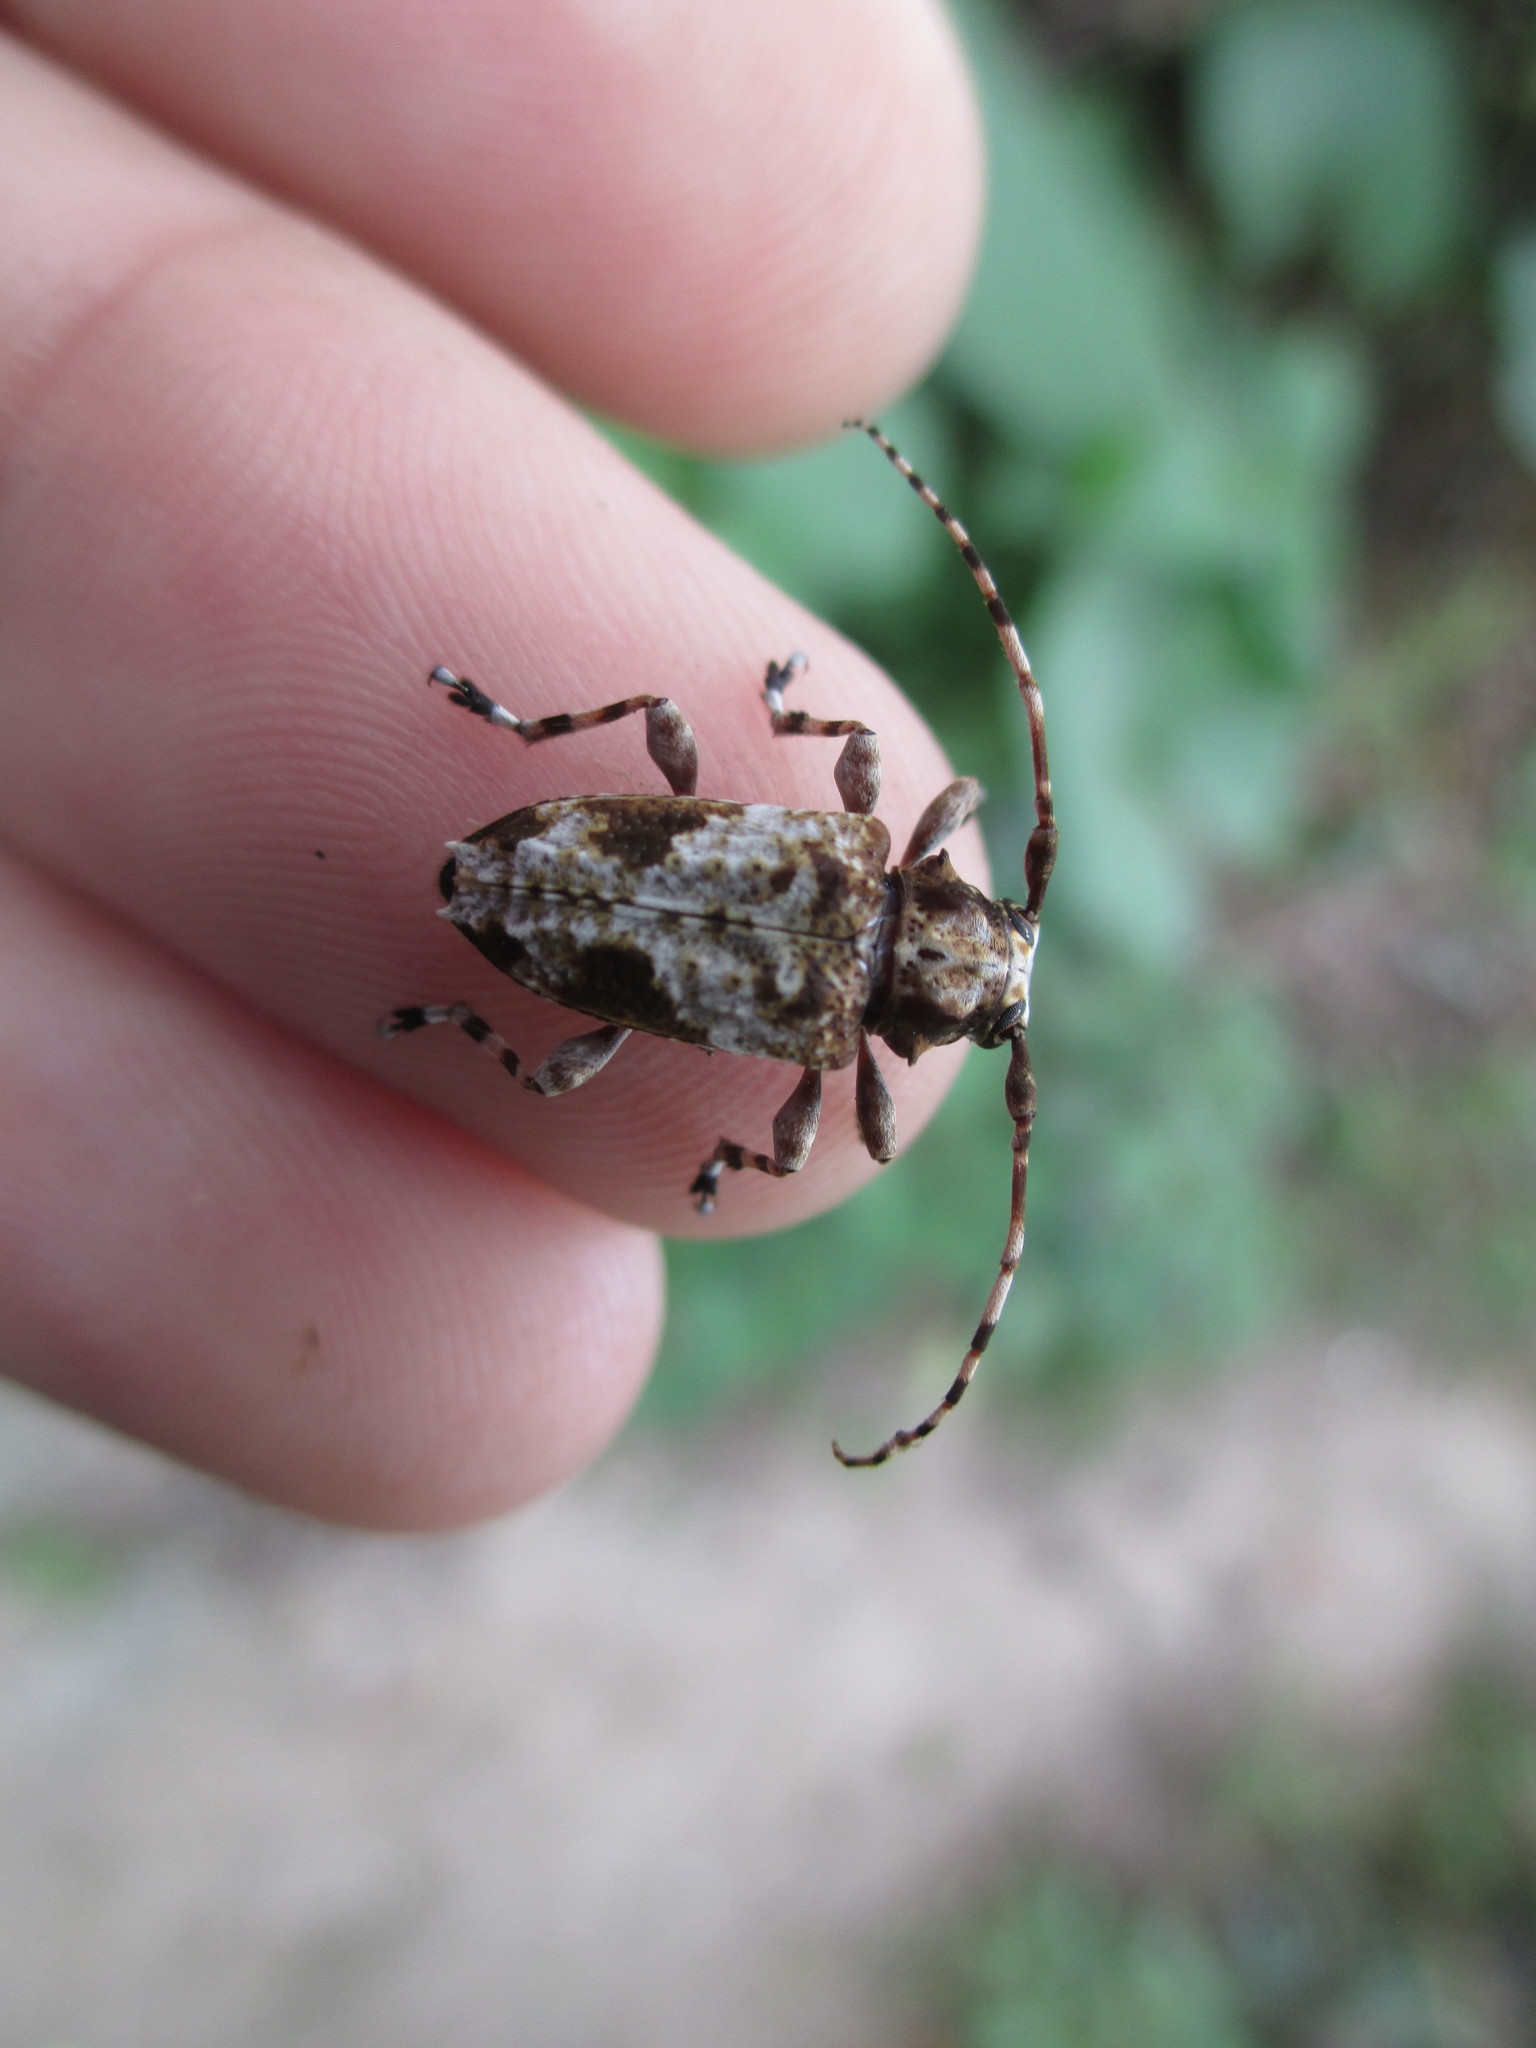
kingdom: Animalia
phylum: Arthropoda
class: Insecta
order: Coleoptera
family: Cerambycidae
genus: Psapharochrus
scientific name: Psapharochrus jaspideus
